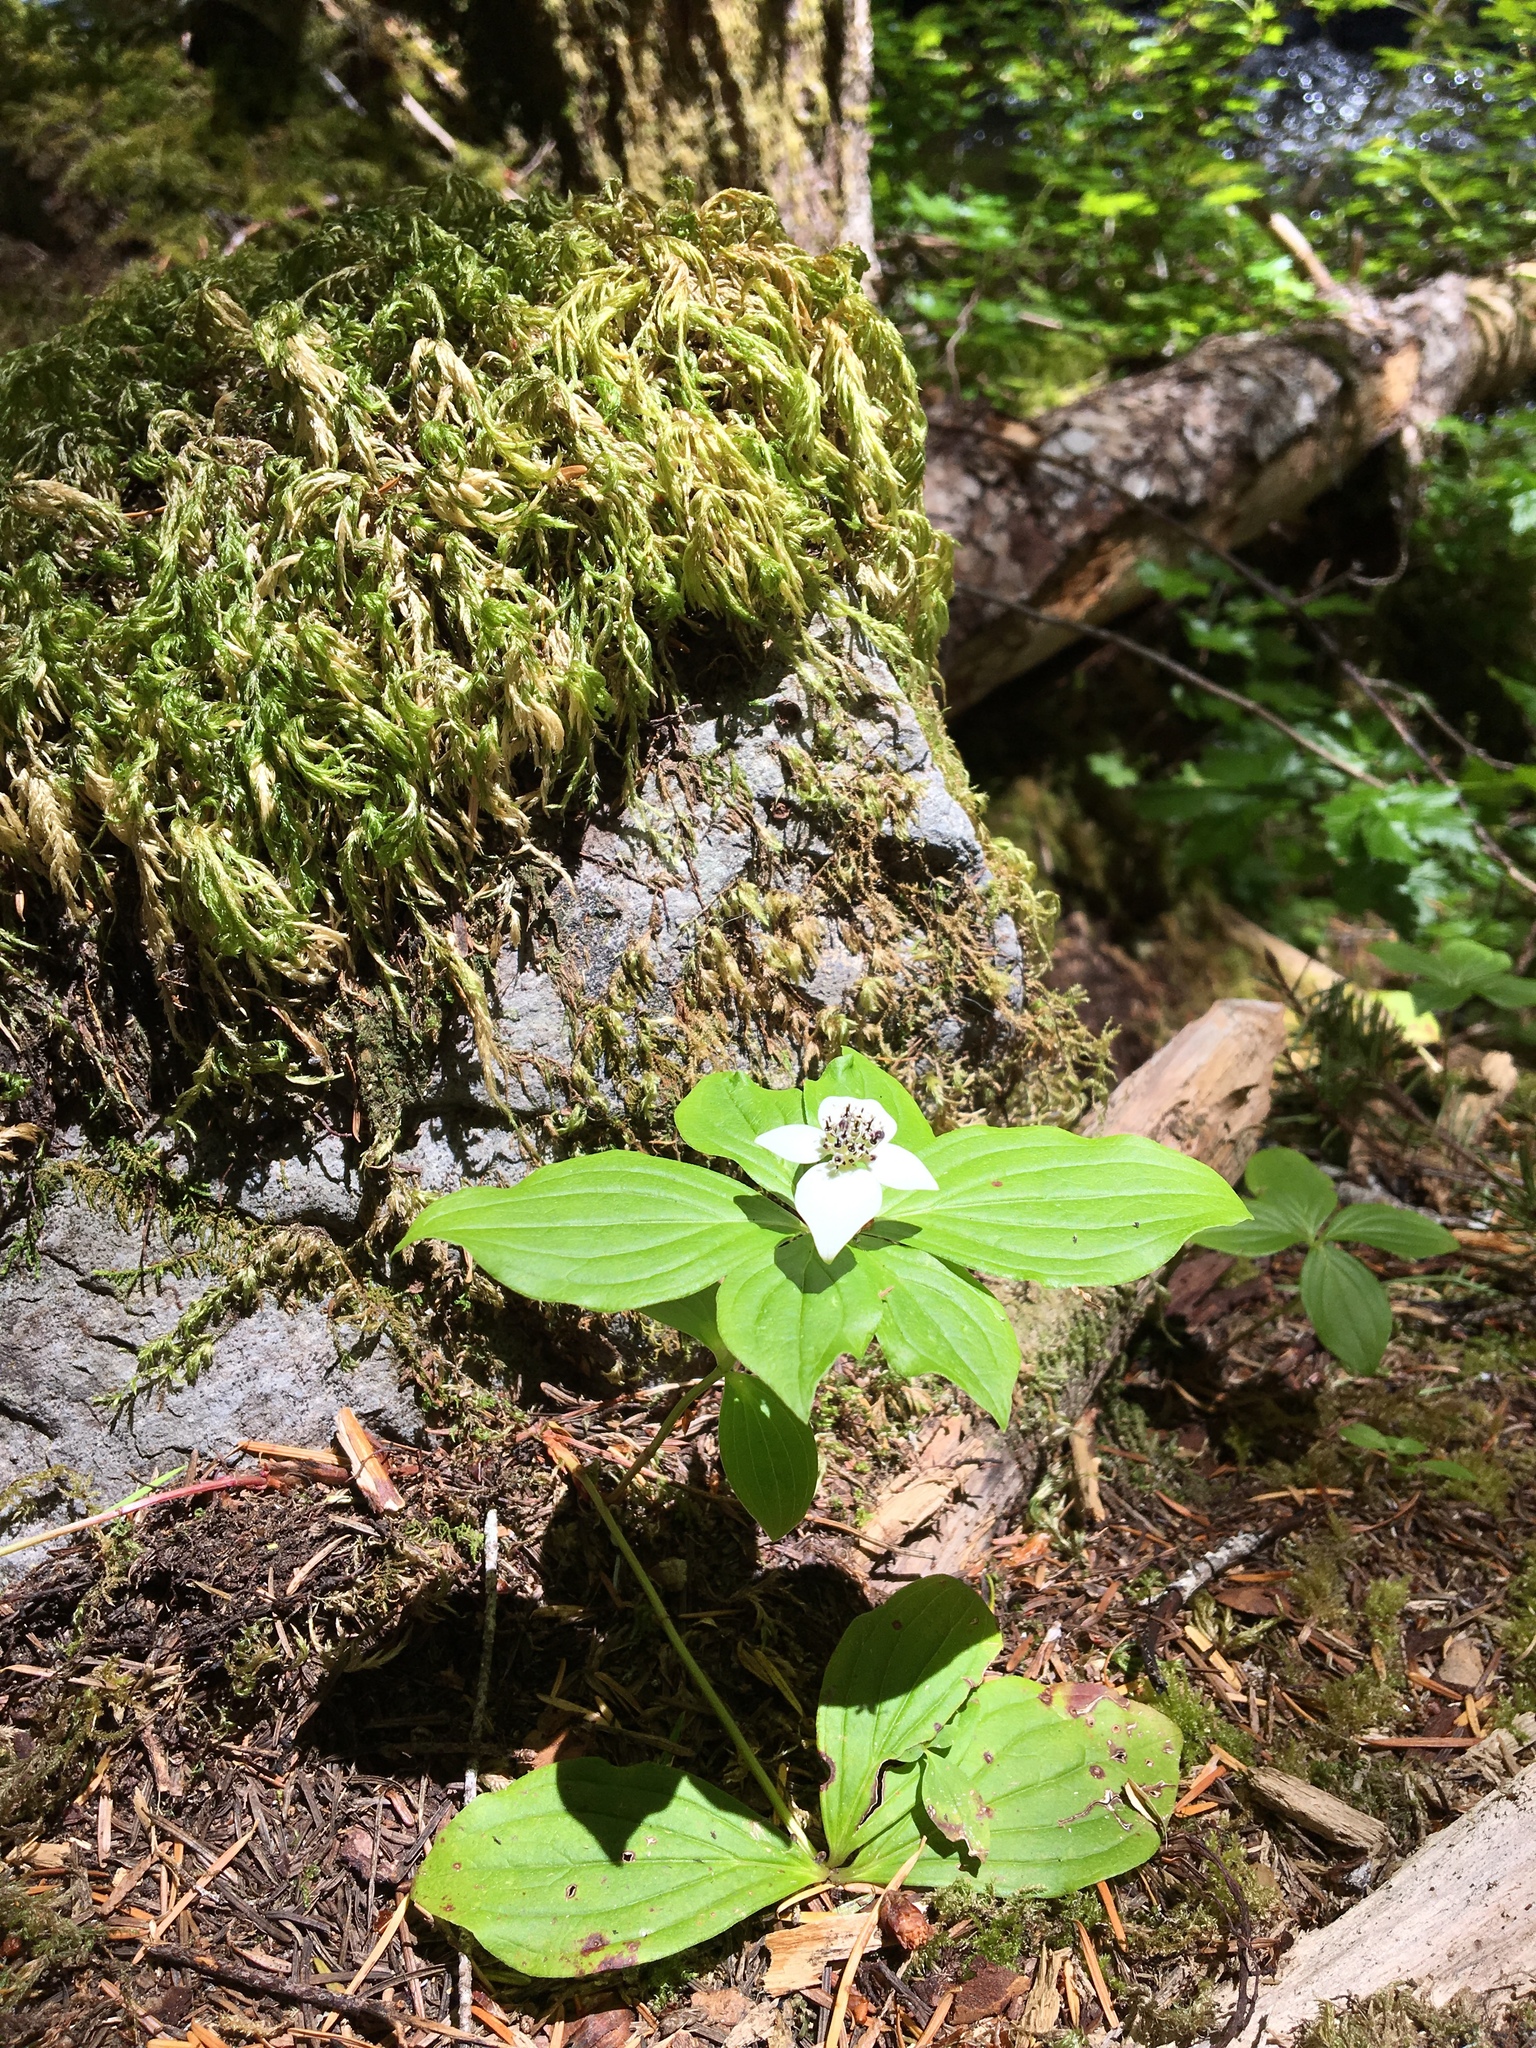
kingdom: Plantae
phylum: Tracheophyta
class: Magnoliopsida
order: Cornales
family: Cornaceae
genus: Cornus
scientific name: Cornus unalaschkensis
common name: Alaska bunchberry
